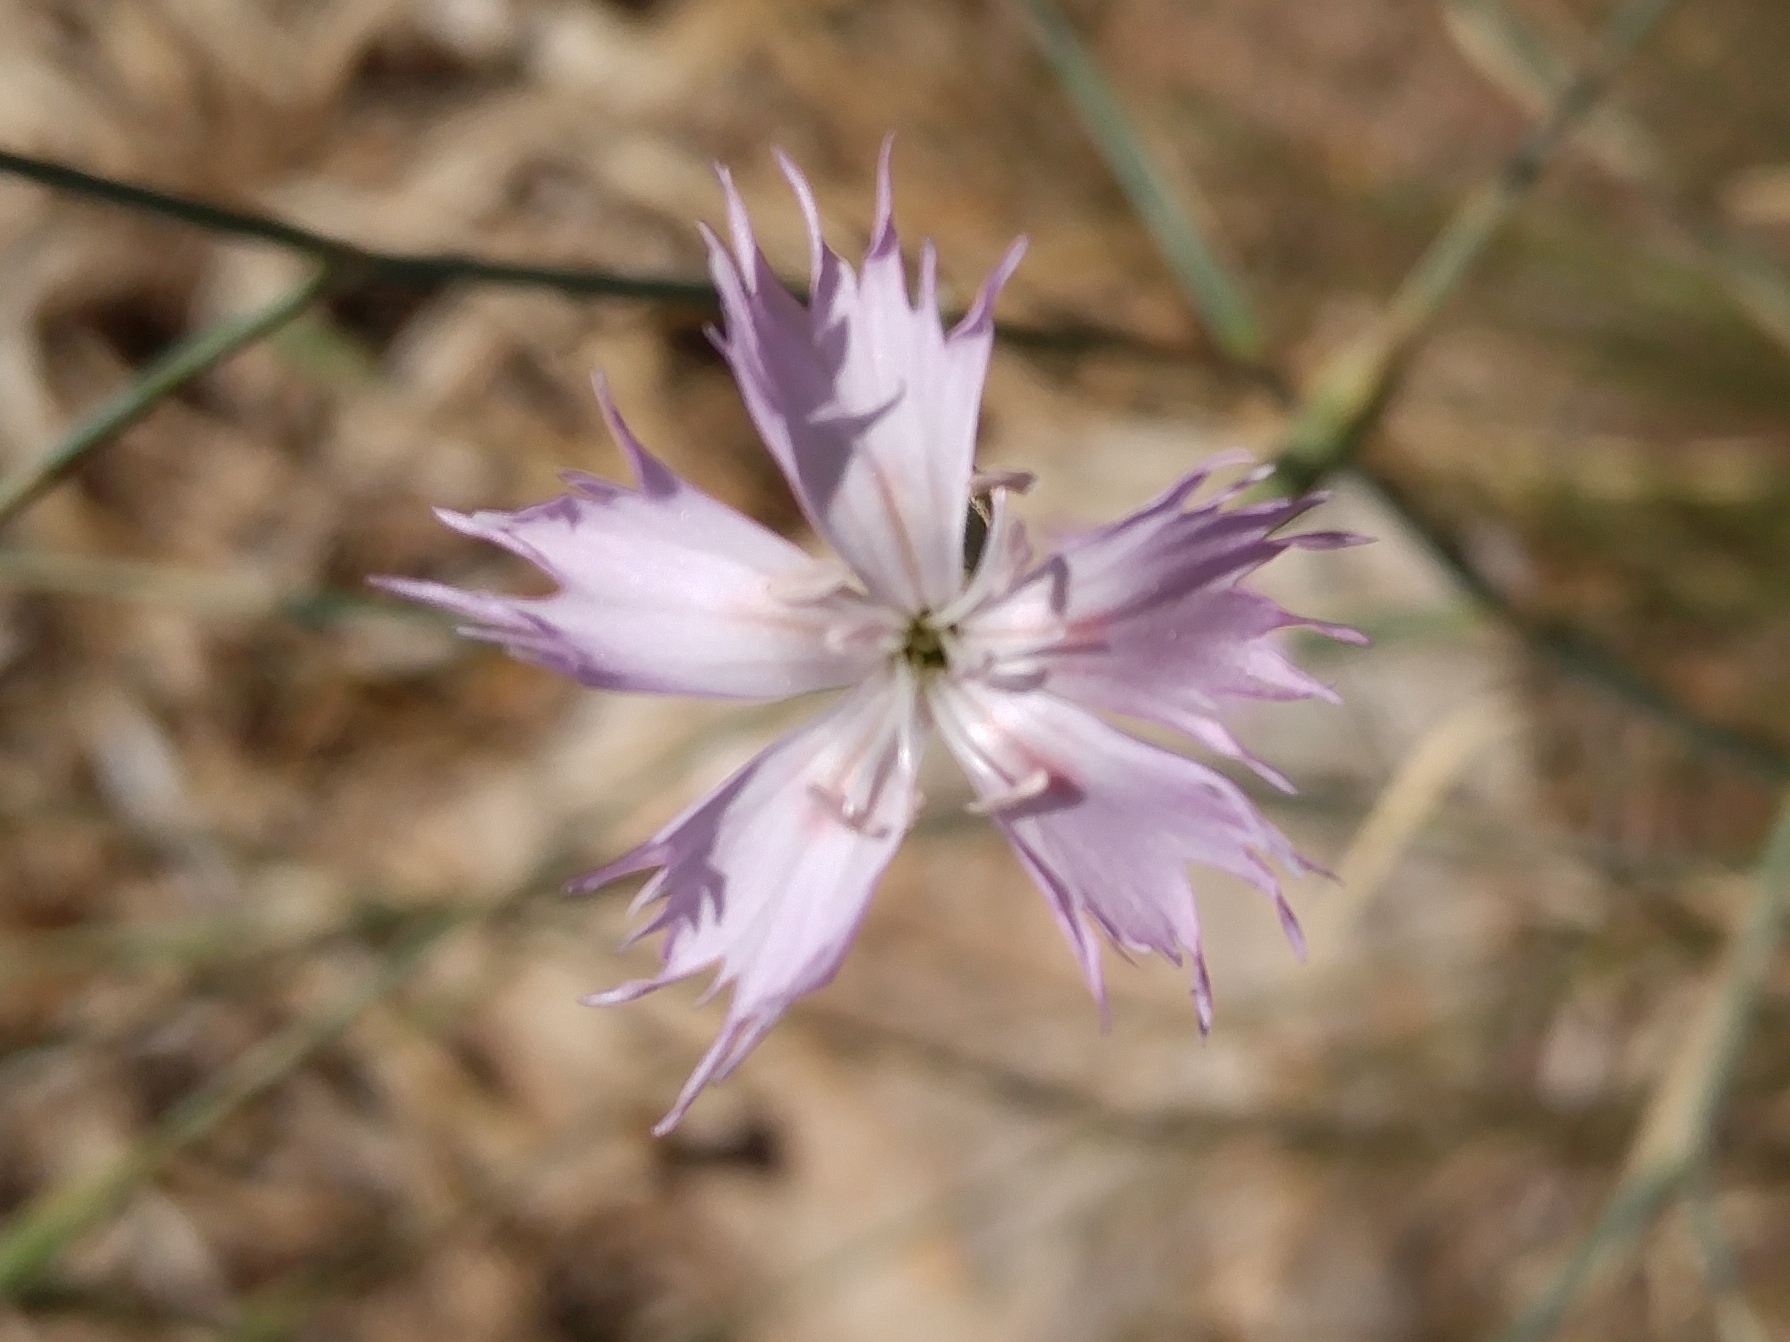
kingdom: Plantae
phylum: Tracheophyta
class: Magnoliopsida
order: Caryophyllales
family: Caryophyllaceae
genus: Dianthus
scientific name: Dianthus crinitus
